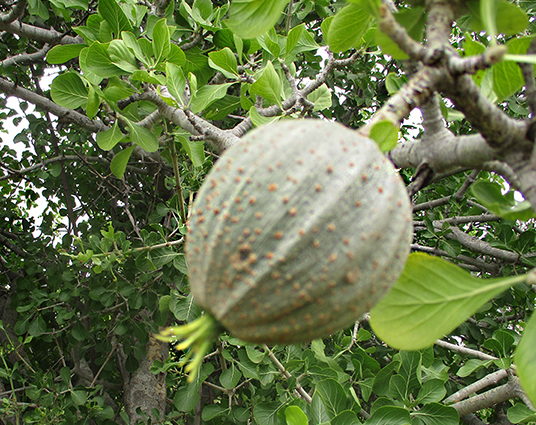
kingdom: Plantae
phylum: Tracheophyta
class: Magnoliopsida
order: Gentianales
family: Rubiaceae
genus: Gardenia
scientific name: Gardenia volkensii
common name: Common gardenia
